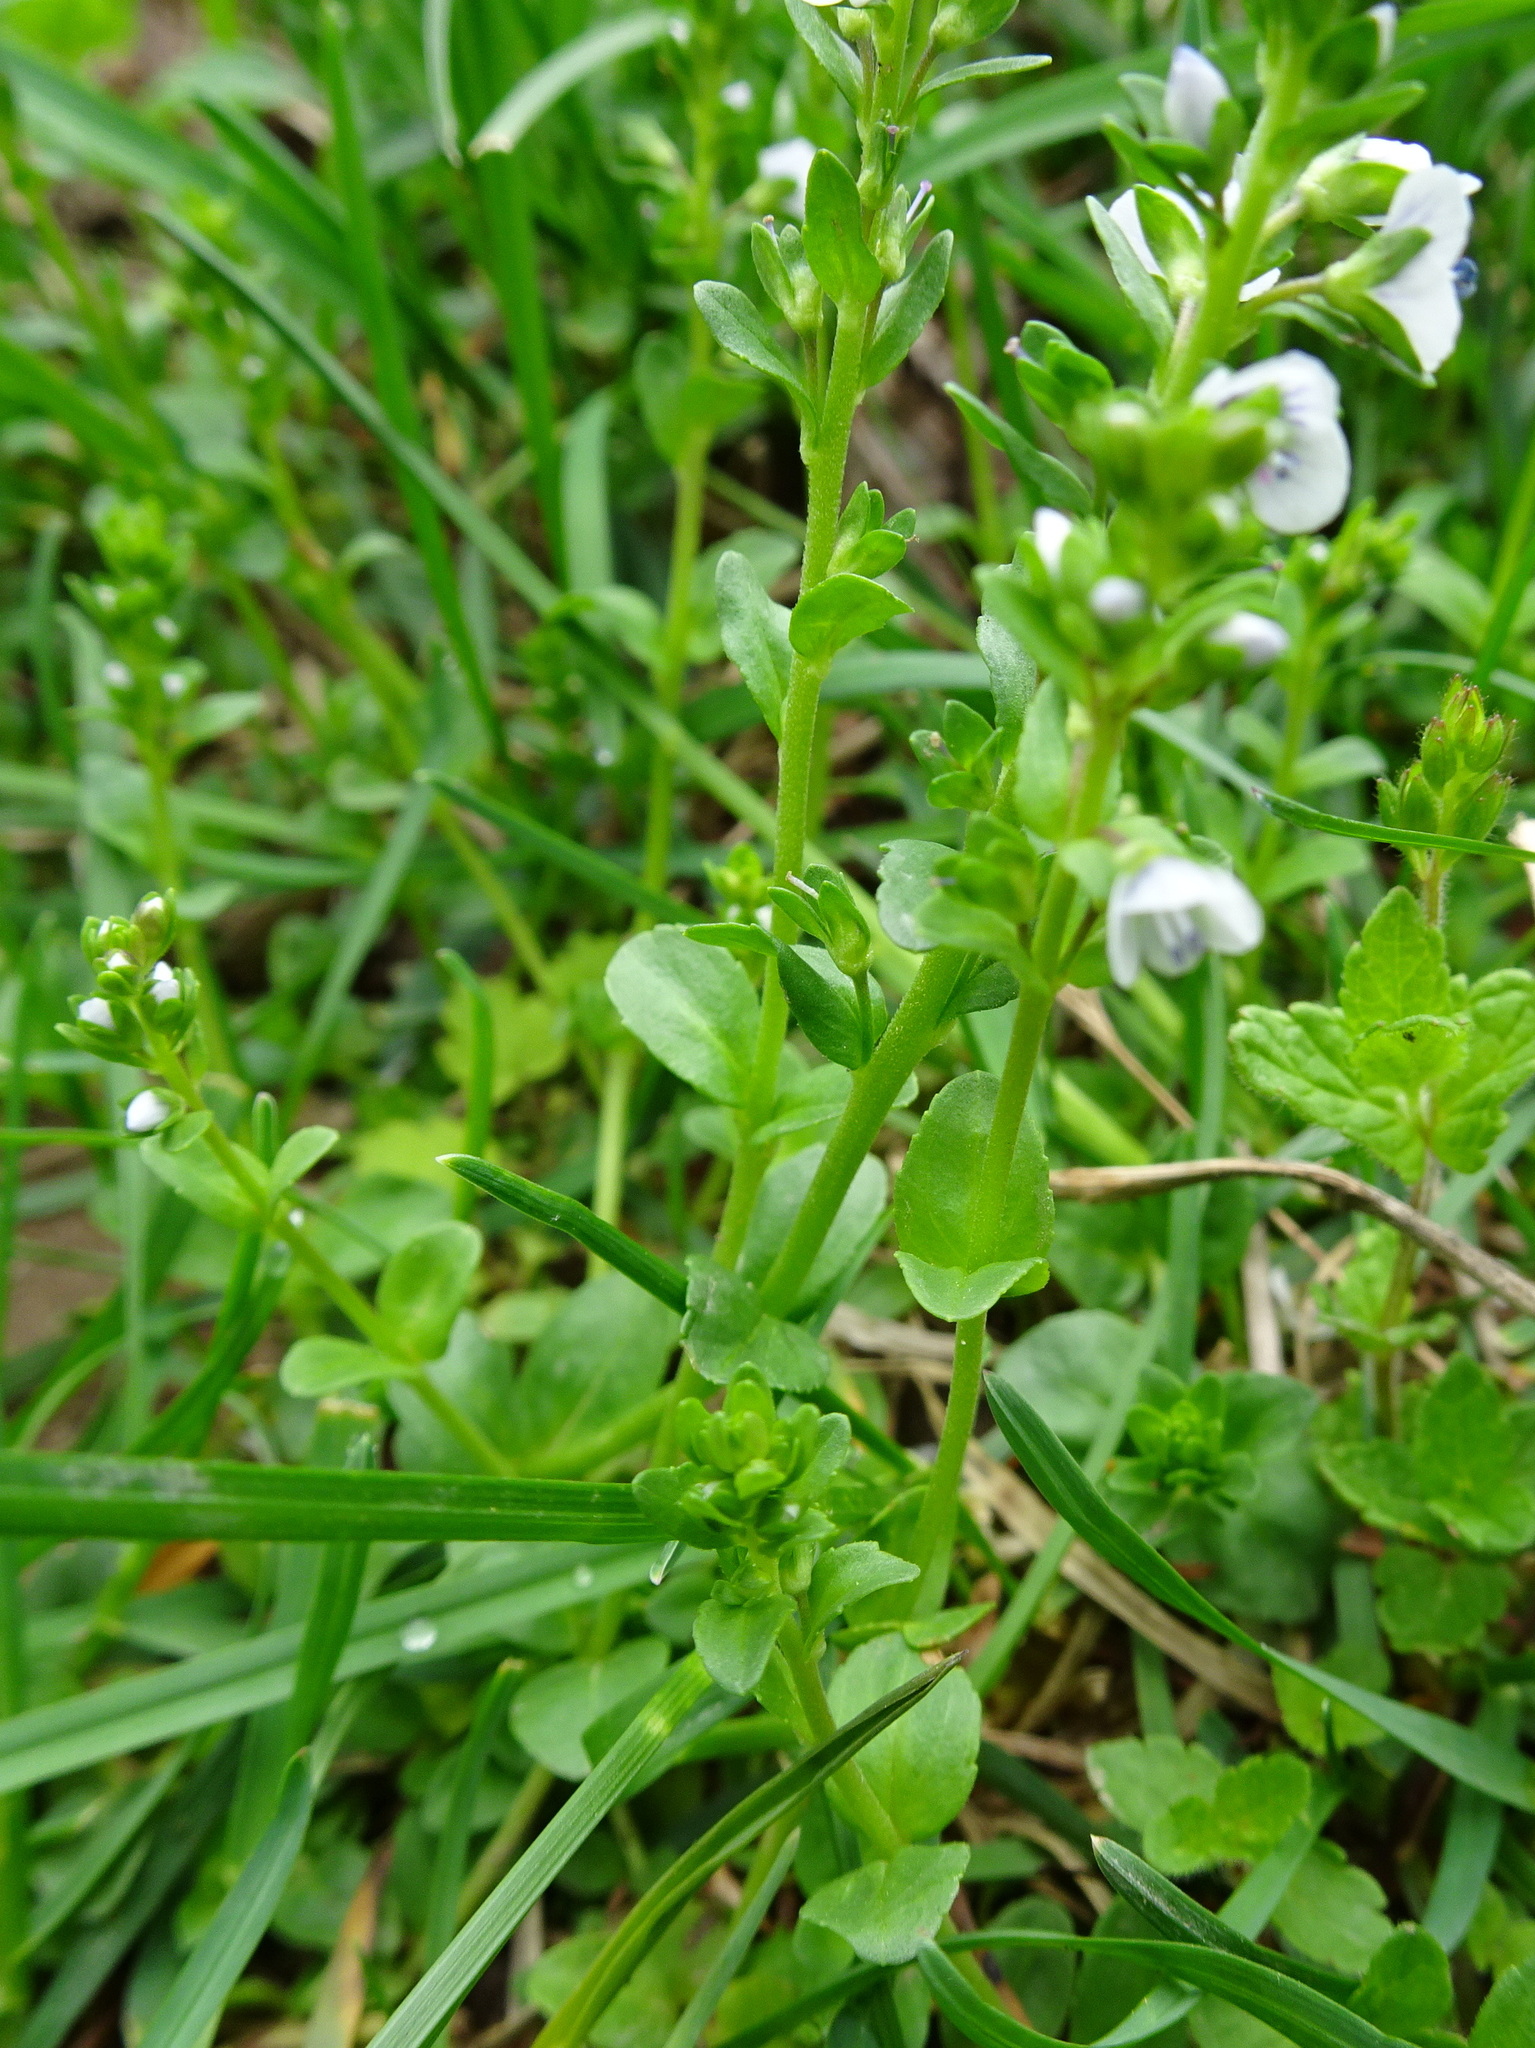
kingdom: Plantae
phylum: Tracheophyta
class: Magnoliopsida
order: Lamiales
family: Plantaginaceae
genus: Veronica
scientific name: Veronica serpyllifolia
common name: Thyme-leaved speedwell
